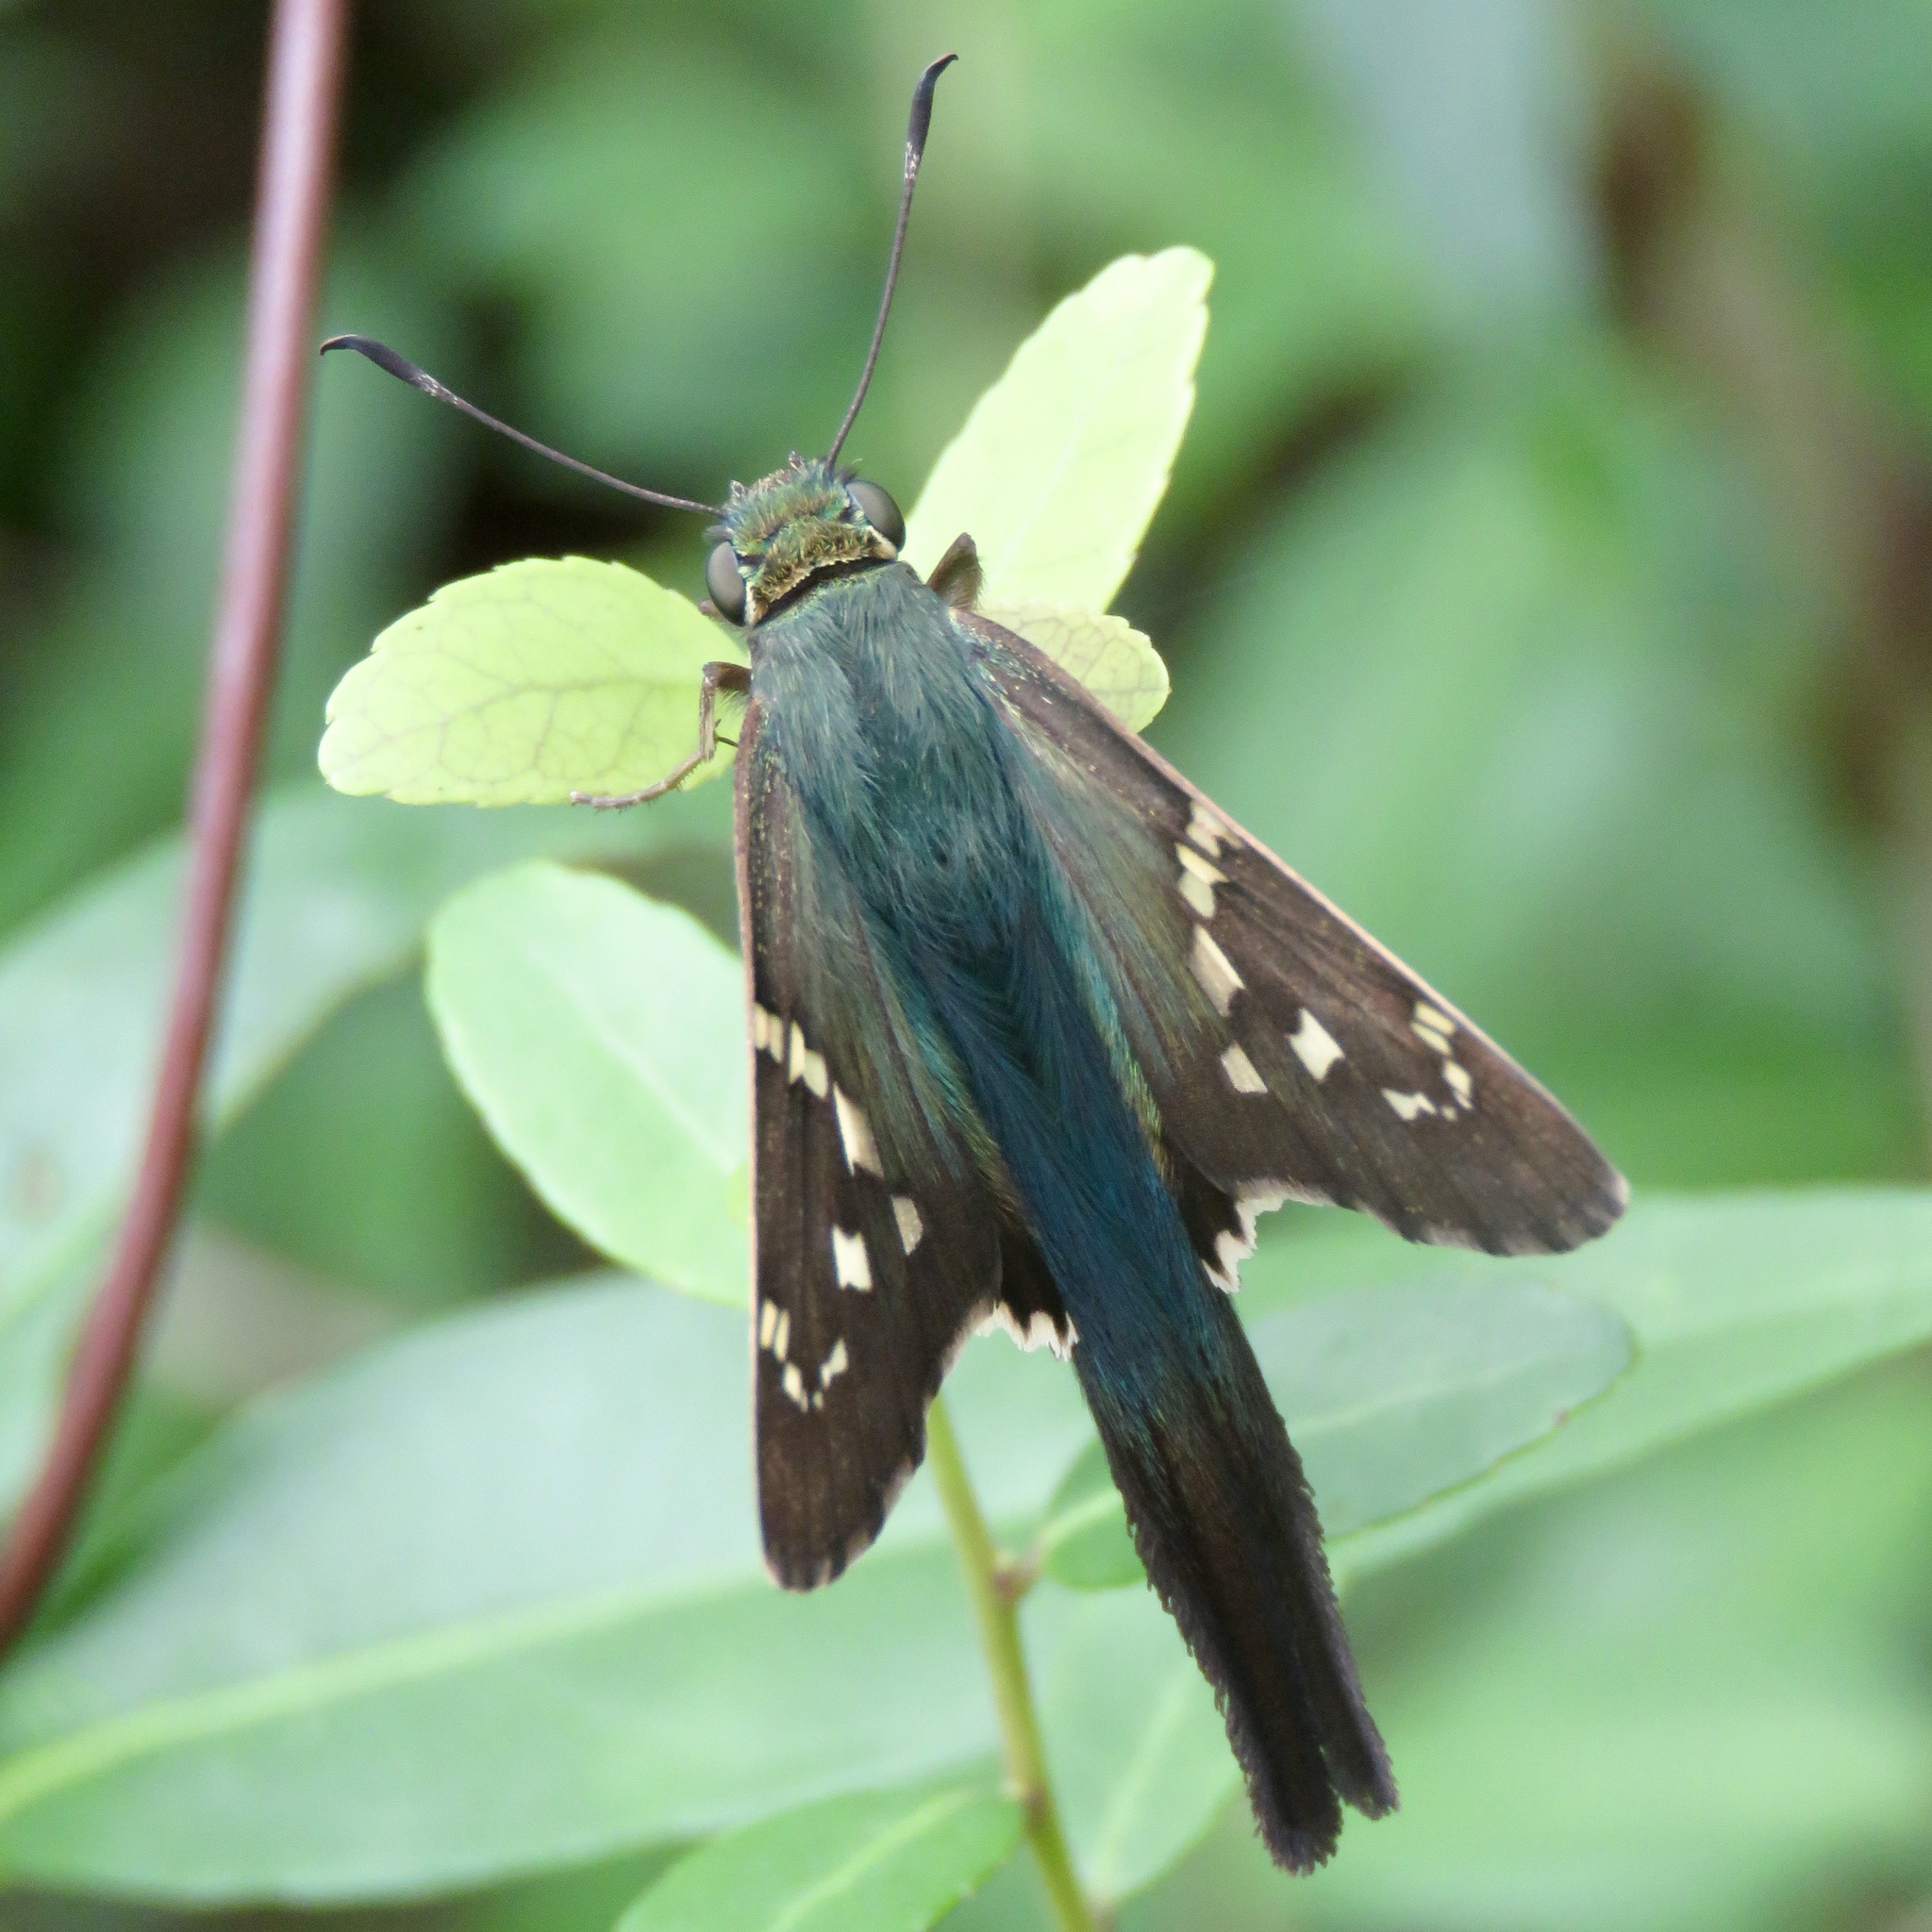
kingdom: Animalia
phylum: Arthropoda
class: Insecta
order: Lepidoptera
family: Hesperiidae
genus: Urbanus
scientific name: Urbanus proteus
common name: Long-tailed skipper
